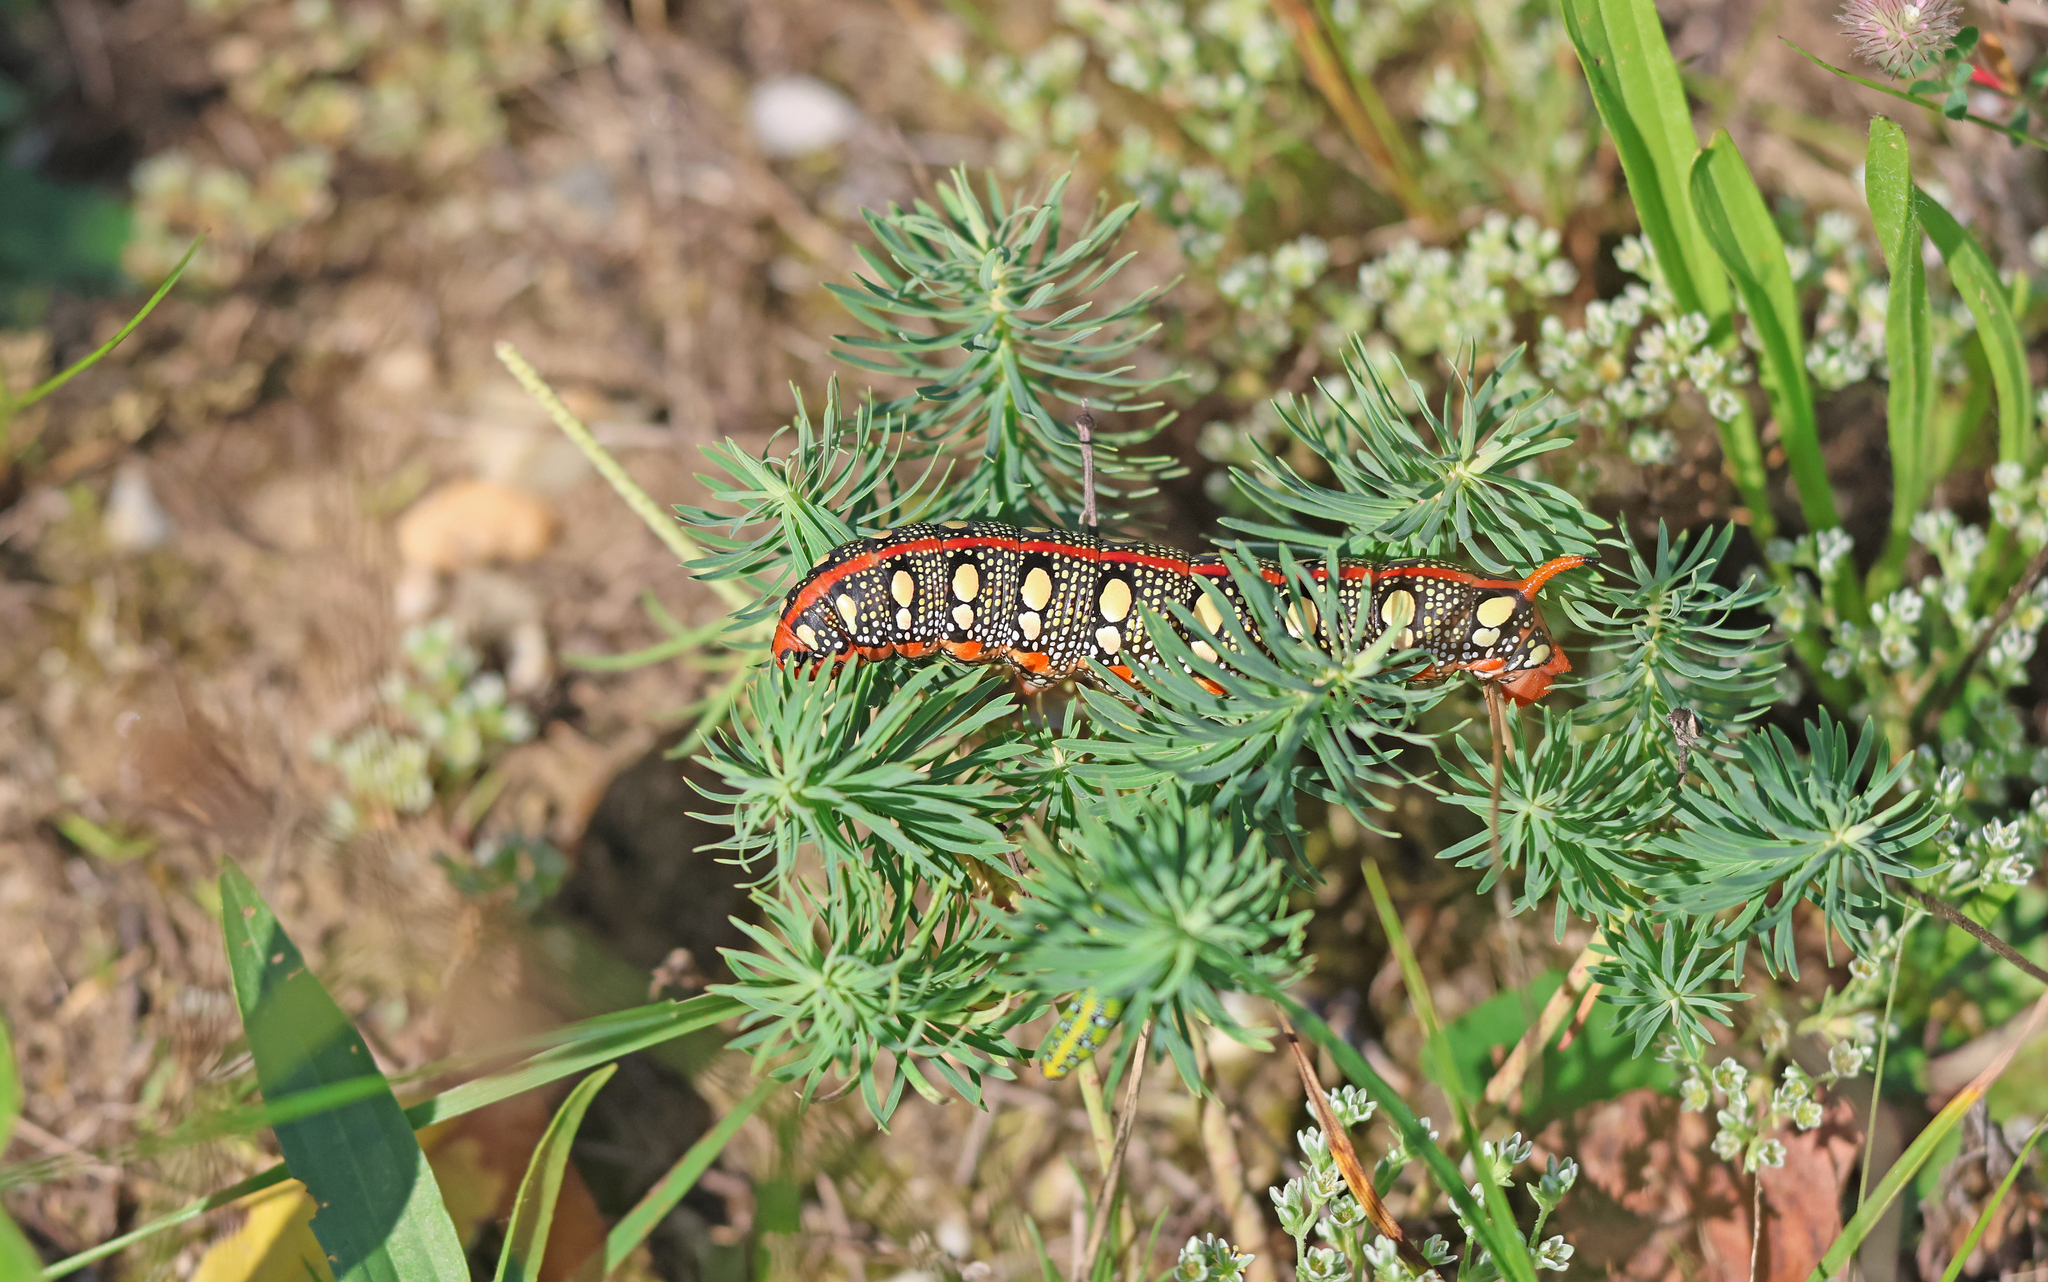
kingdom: Animalia
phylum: Arthropoda
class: Insecta
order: Lepidoptera
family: Sphingidae
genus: Hyles
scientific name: Hyles euphorbiae
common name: Spurge hawk-moth
